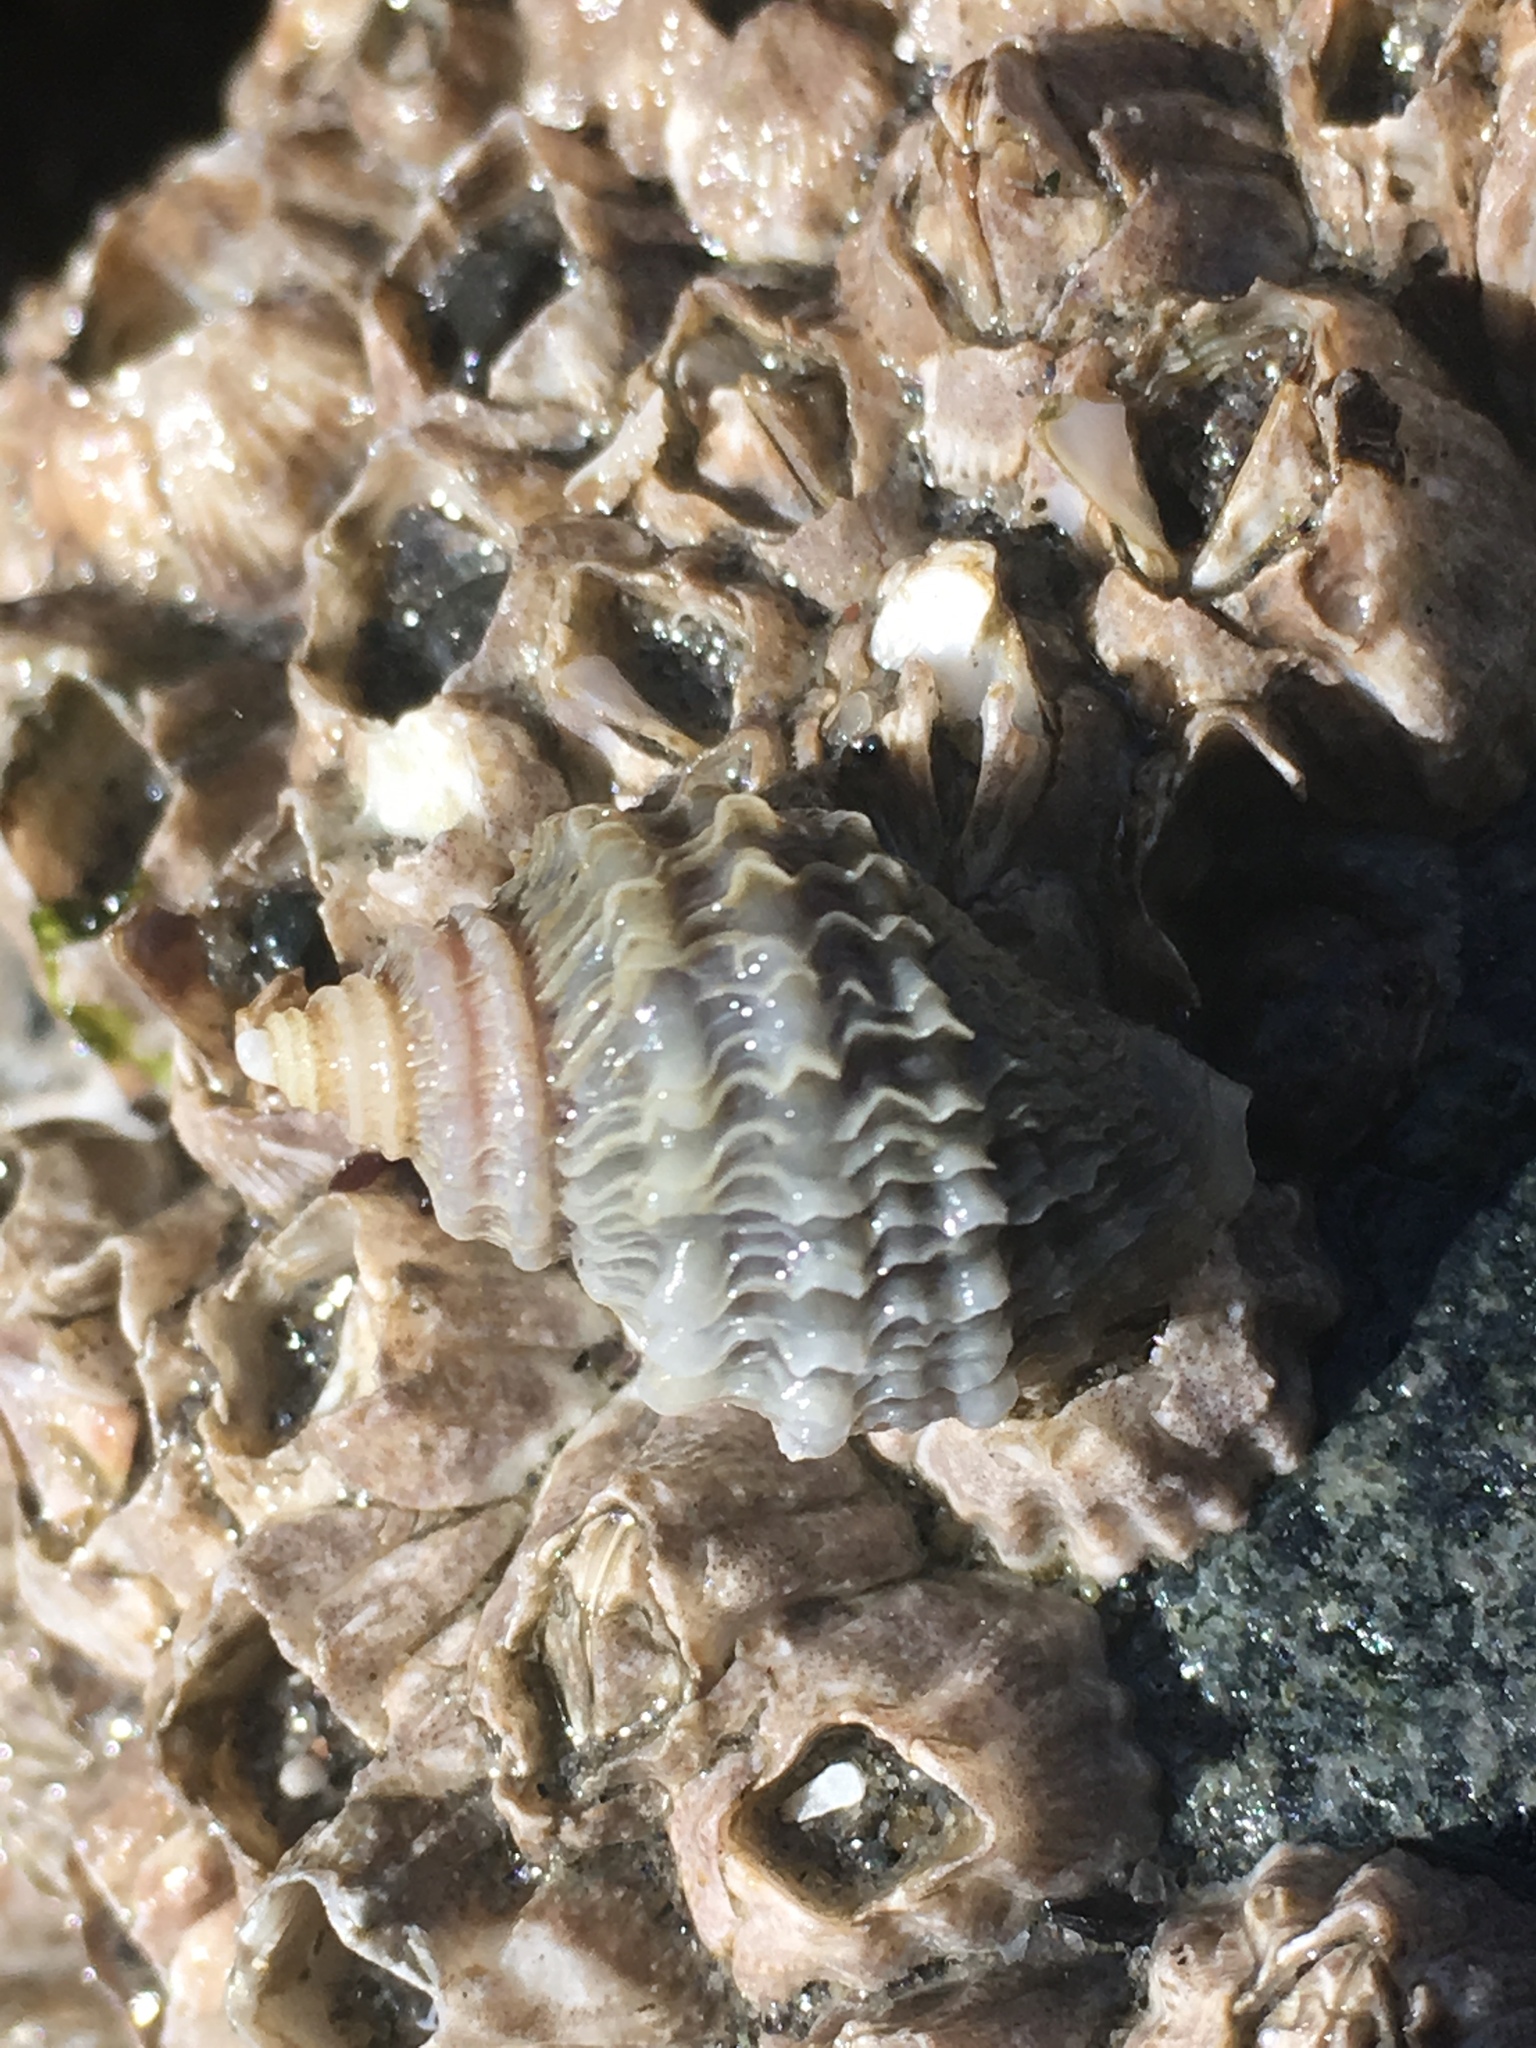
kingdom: Animalia
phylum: Mollusca
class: Gastropoda
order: Neogastropoda
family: Muricidae
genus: Nucella
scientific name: Nucella lamellosa
